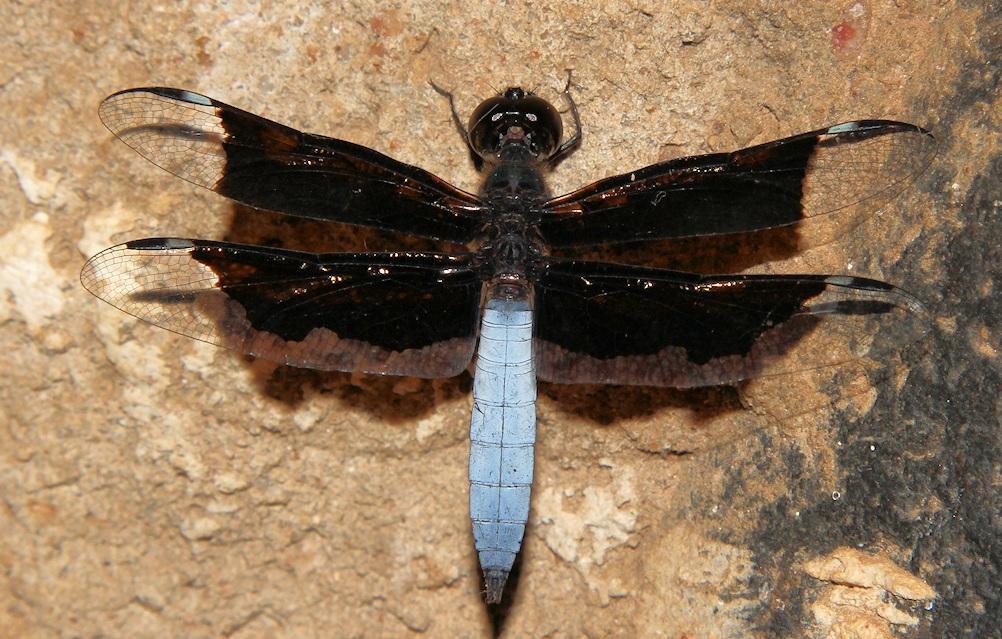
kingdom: Animalia
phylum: Arthropoda
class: Insecta
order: Odonata
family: Libellulidae
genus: Palpopleura
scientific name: Palpopleura lucia
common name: Lucia widow
